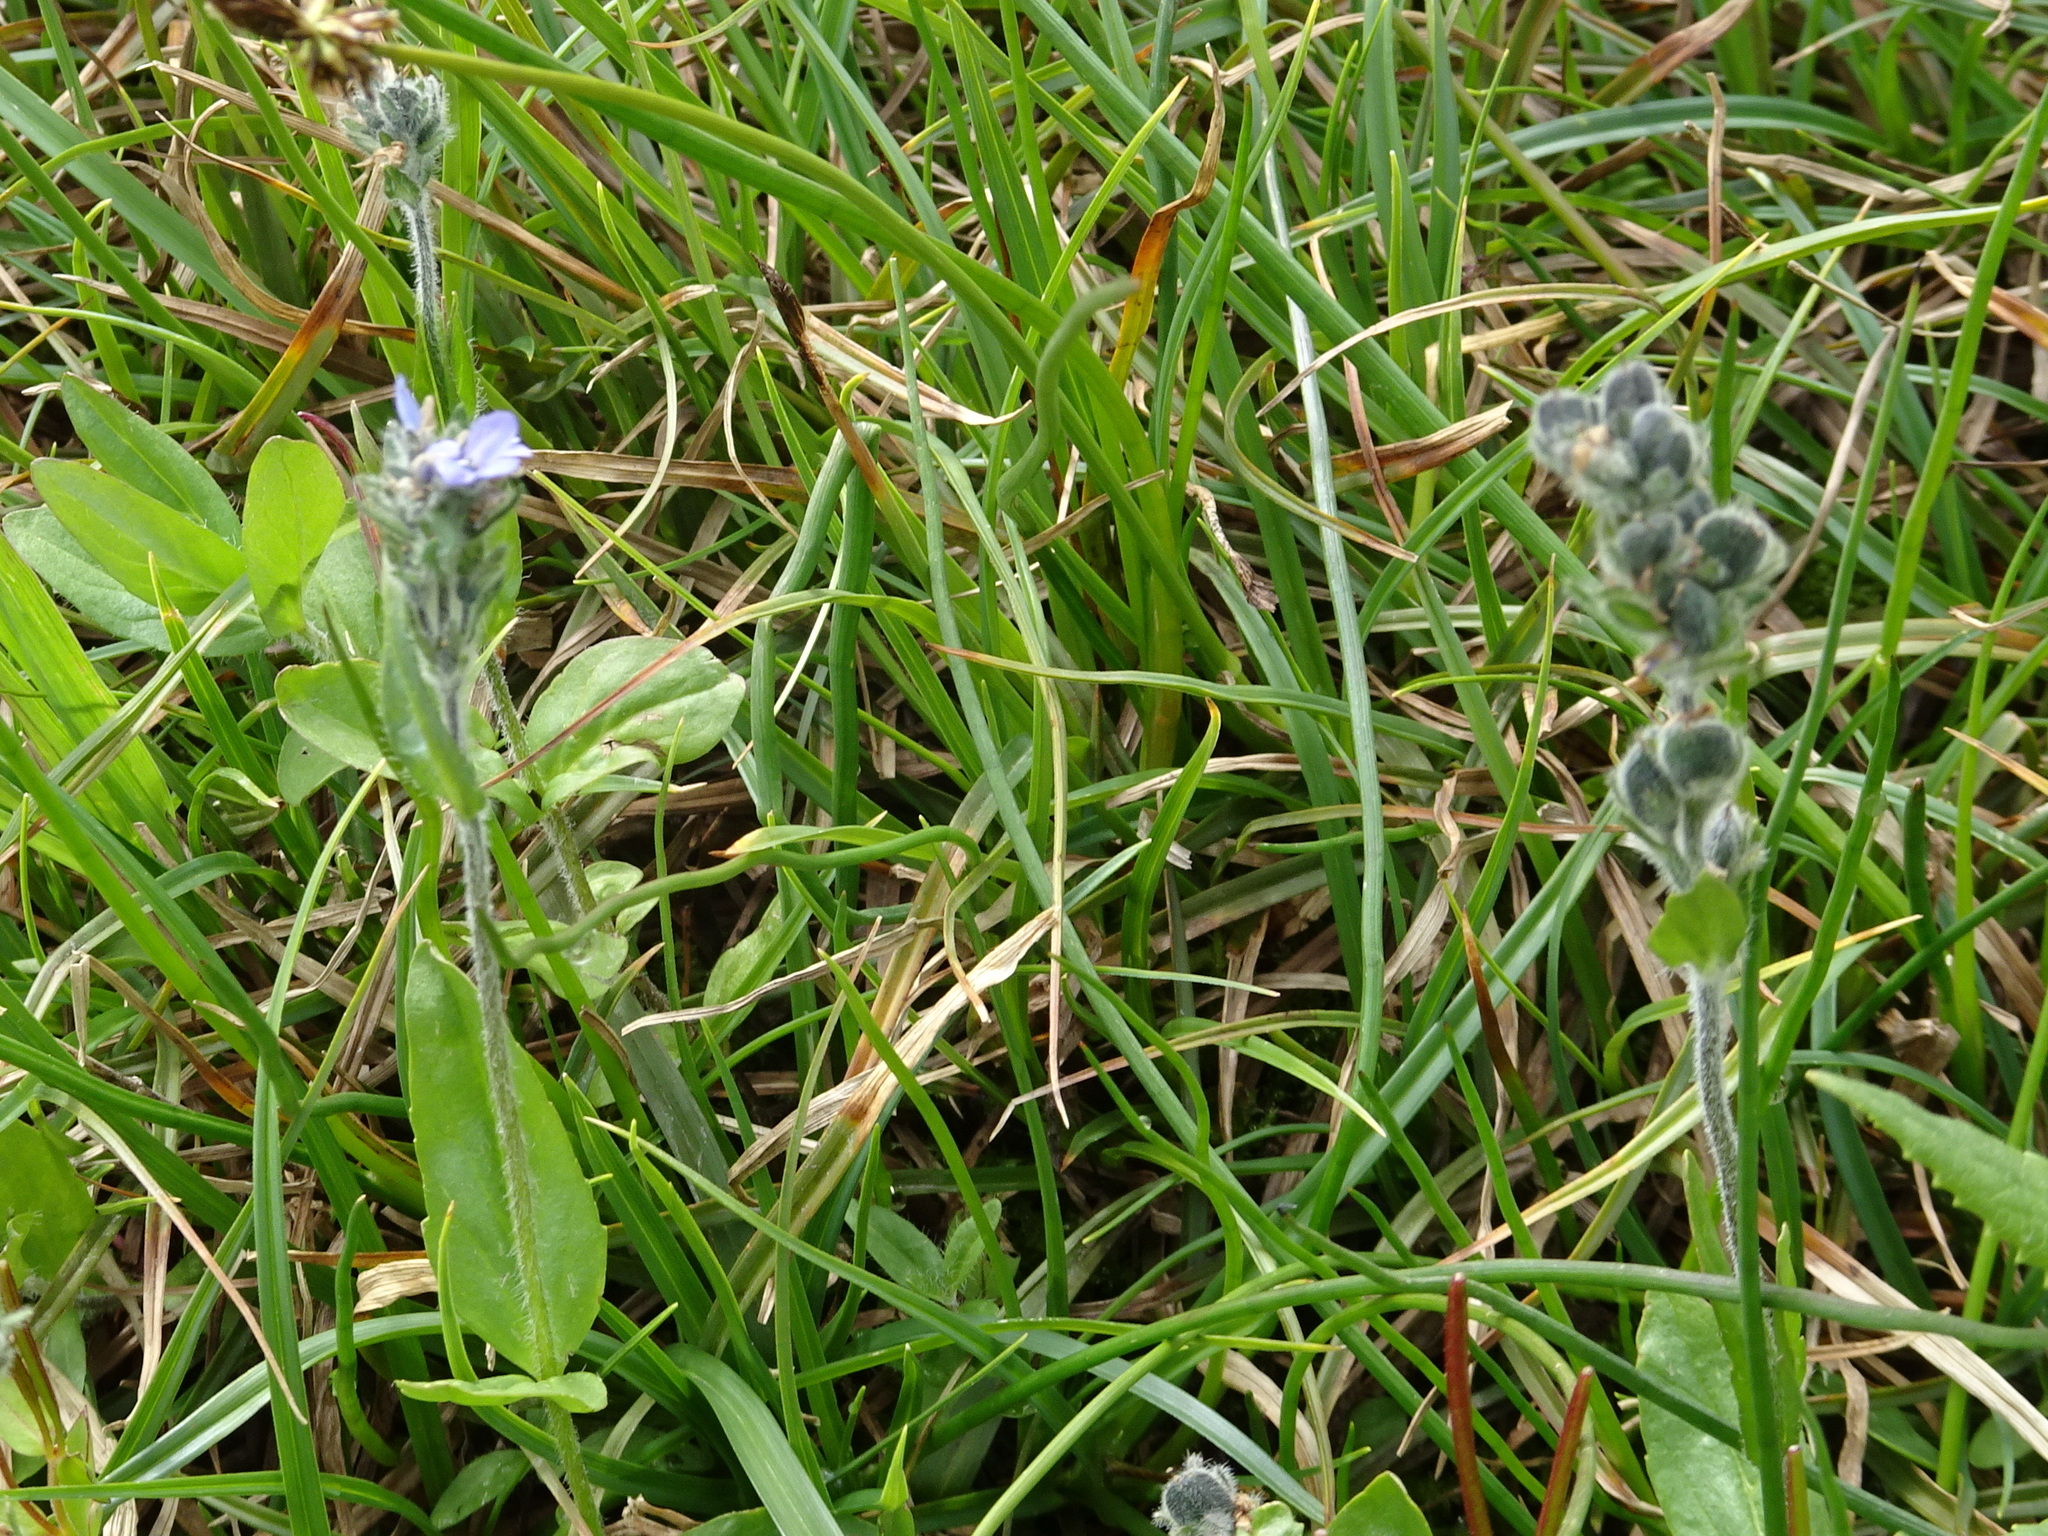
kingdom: Plantae
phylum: Tracheophyta
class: Magnoliopsida
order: Lamiales
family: Plantaginaceae
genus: Veronica
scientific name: Veronica wormskjoldii
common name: American alpine speedwell
